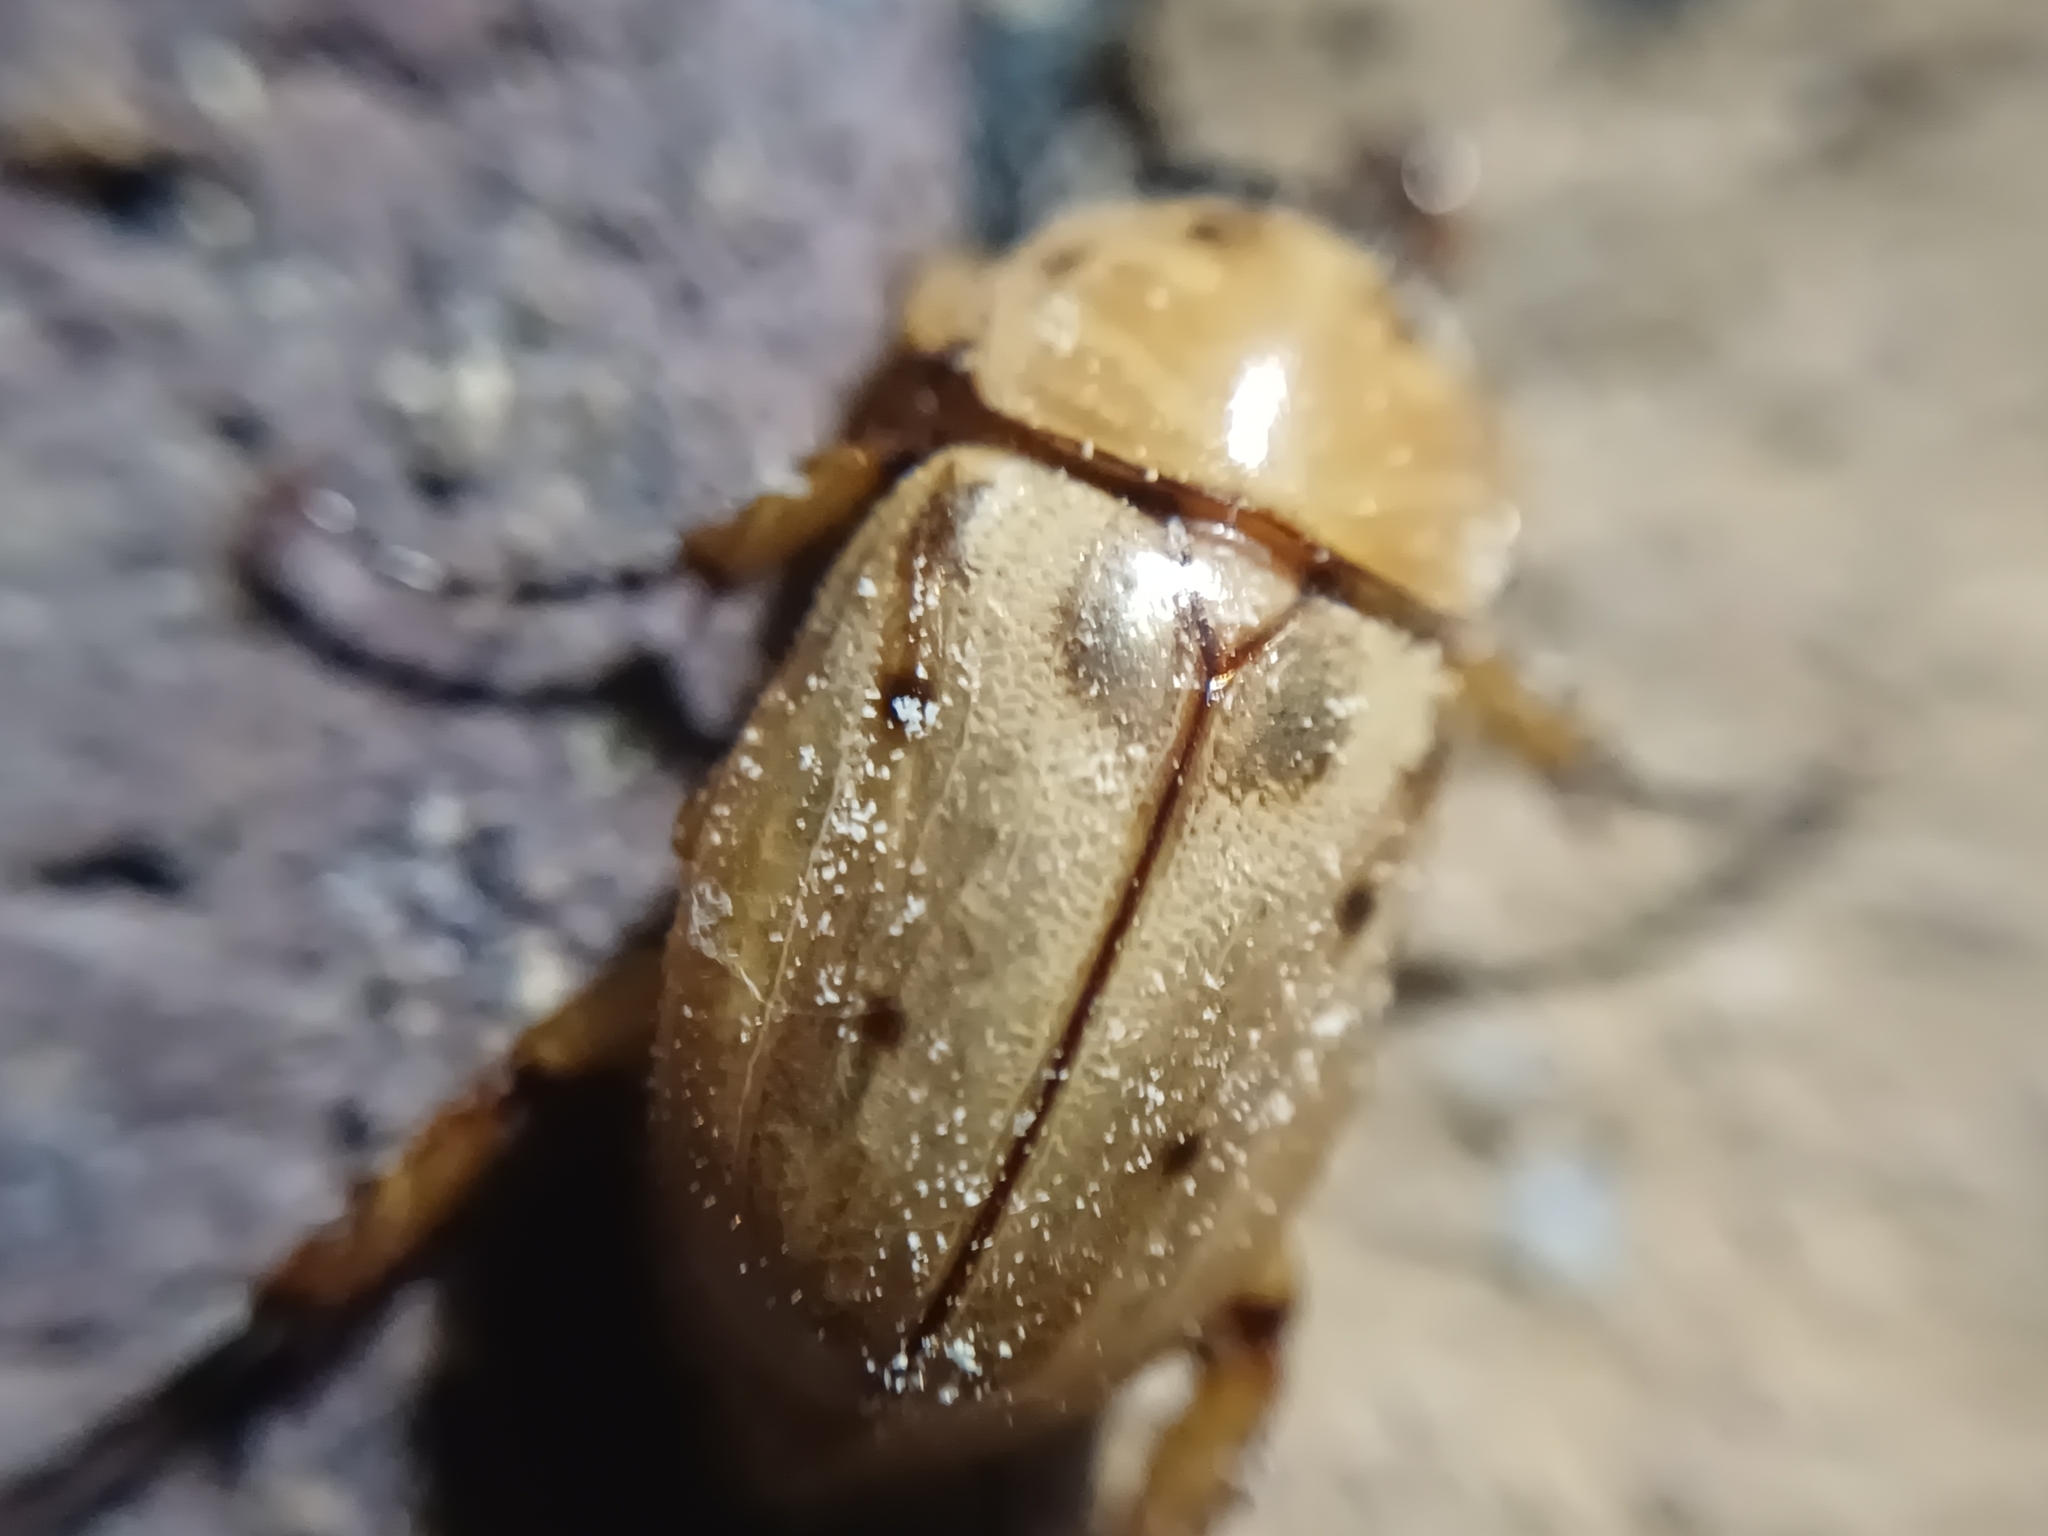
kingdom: Animalia
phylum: Arthropoda
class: Insecta
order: Coleoptera
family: Scarabaeidae
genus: Cyclocephala
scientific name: Cyclocephala lunulata
